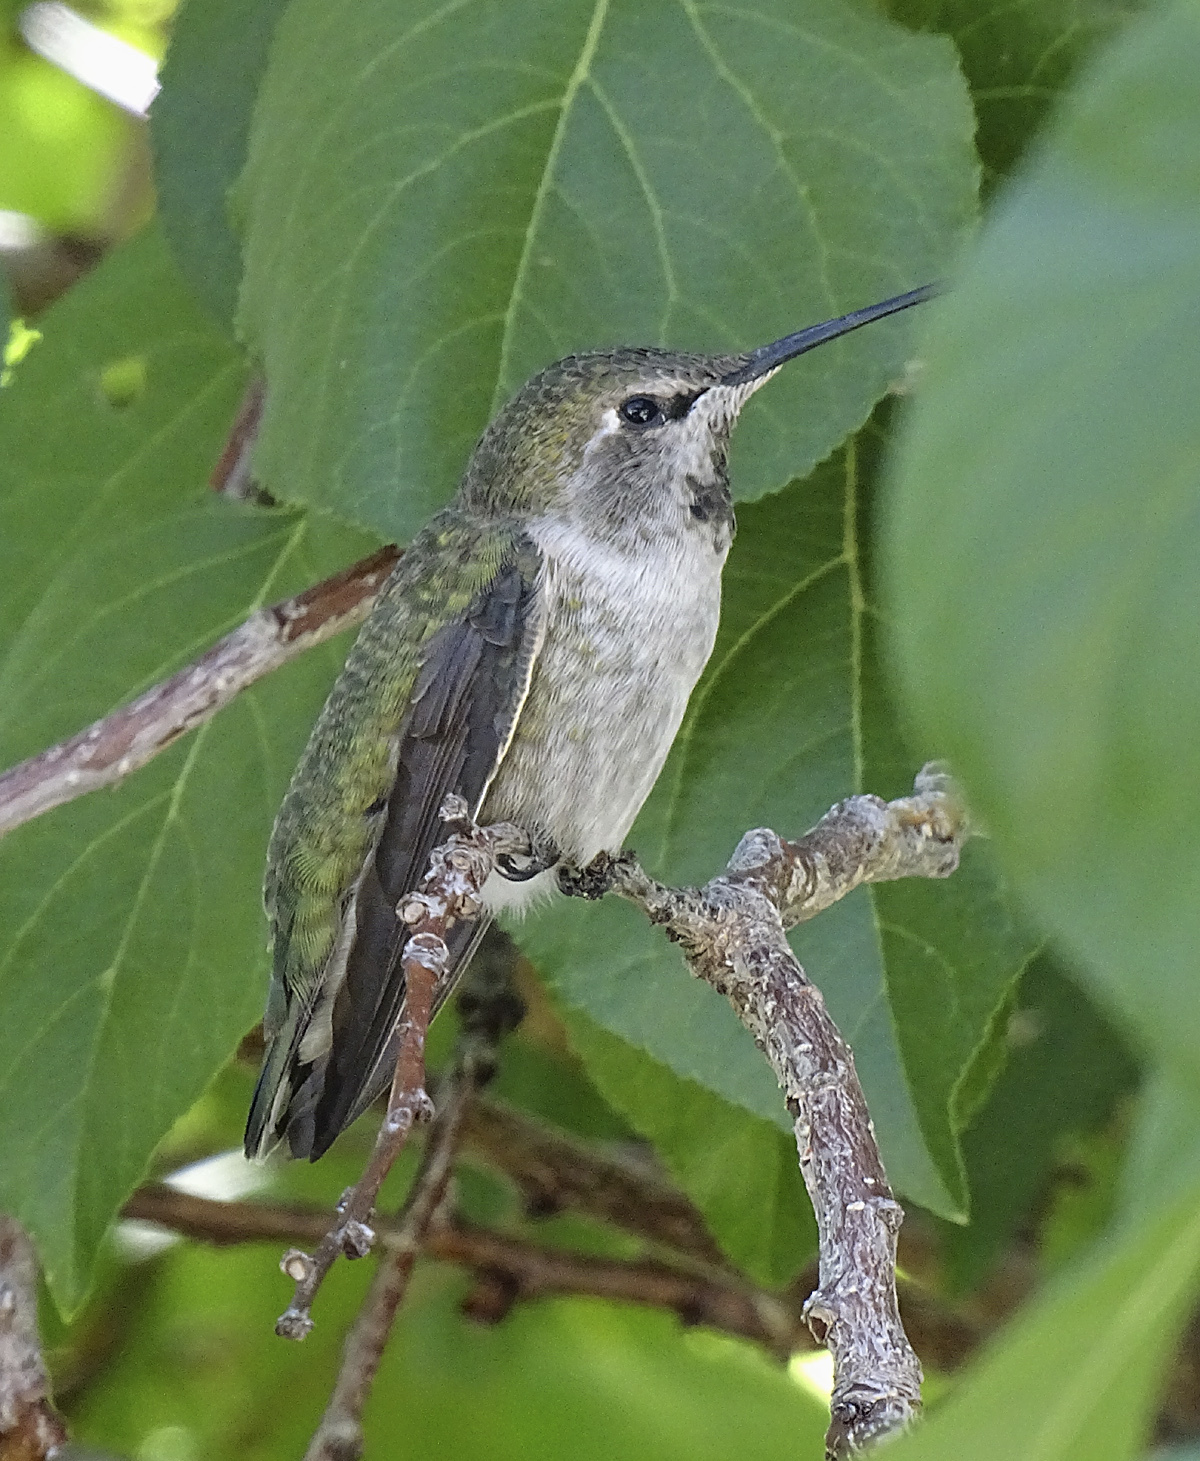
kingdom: Animalia
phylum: Chordata
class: Aves
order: Apodiformes
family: Trochilidae
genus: Calypte
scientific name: Calypte anna
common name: Anna's hummingbird
